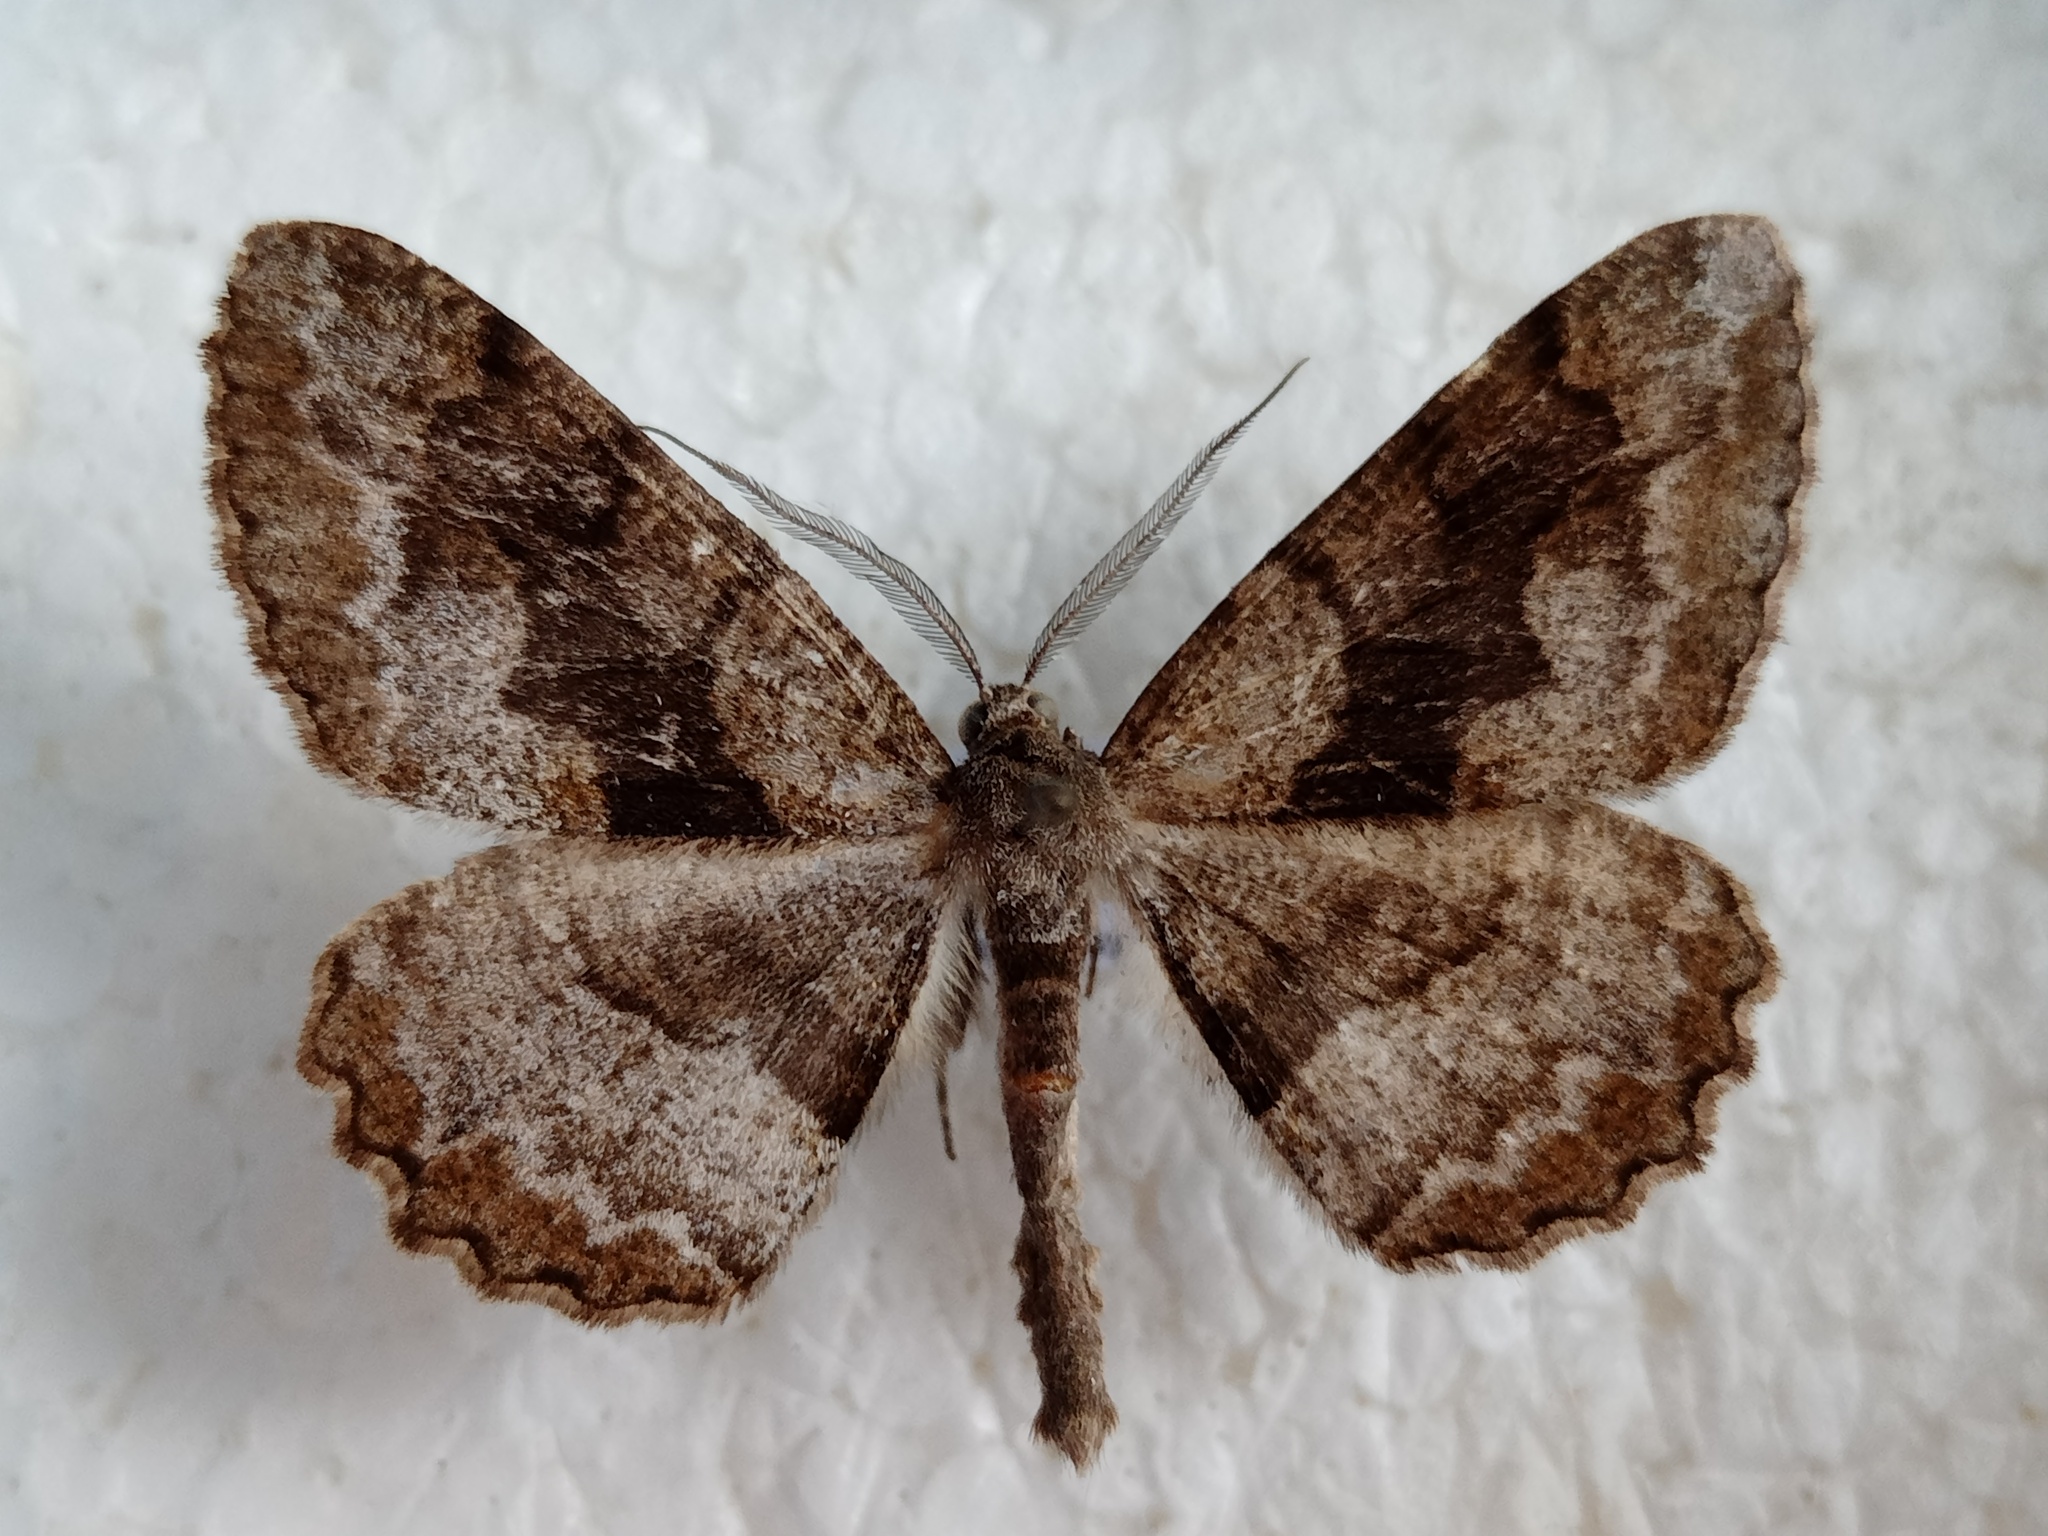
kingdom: Animalia
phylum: Arthropoda
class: Insecta
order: Lepidoptera
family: Geometridae
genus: Alcis
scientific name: Alcis repandata
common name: Mottled beauty
